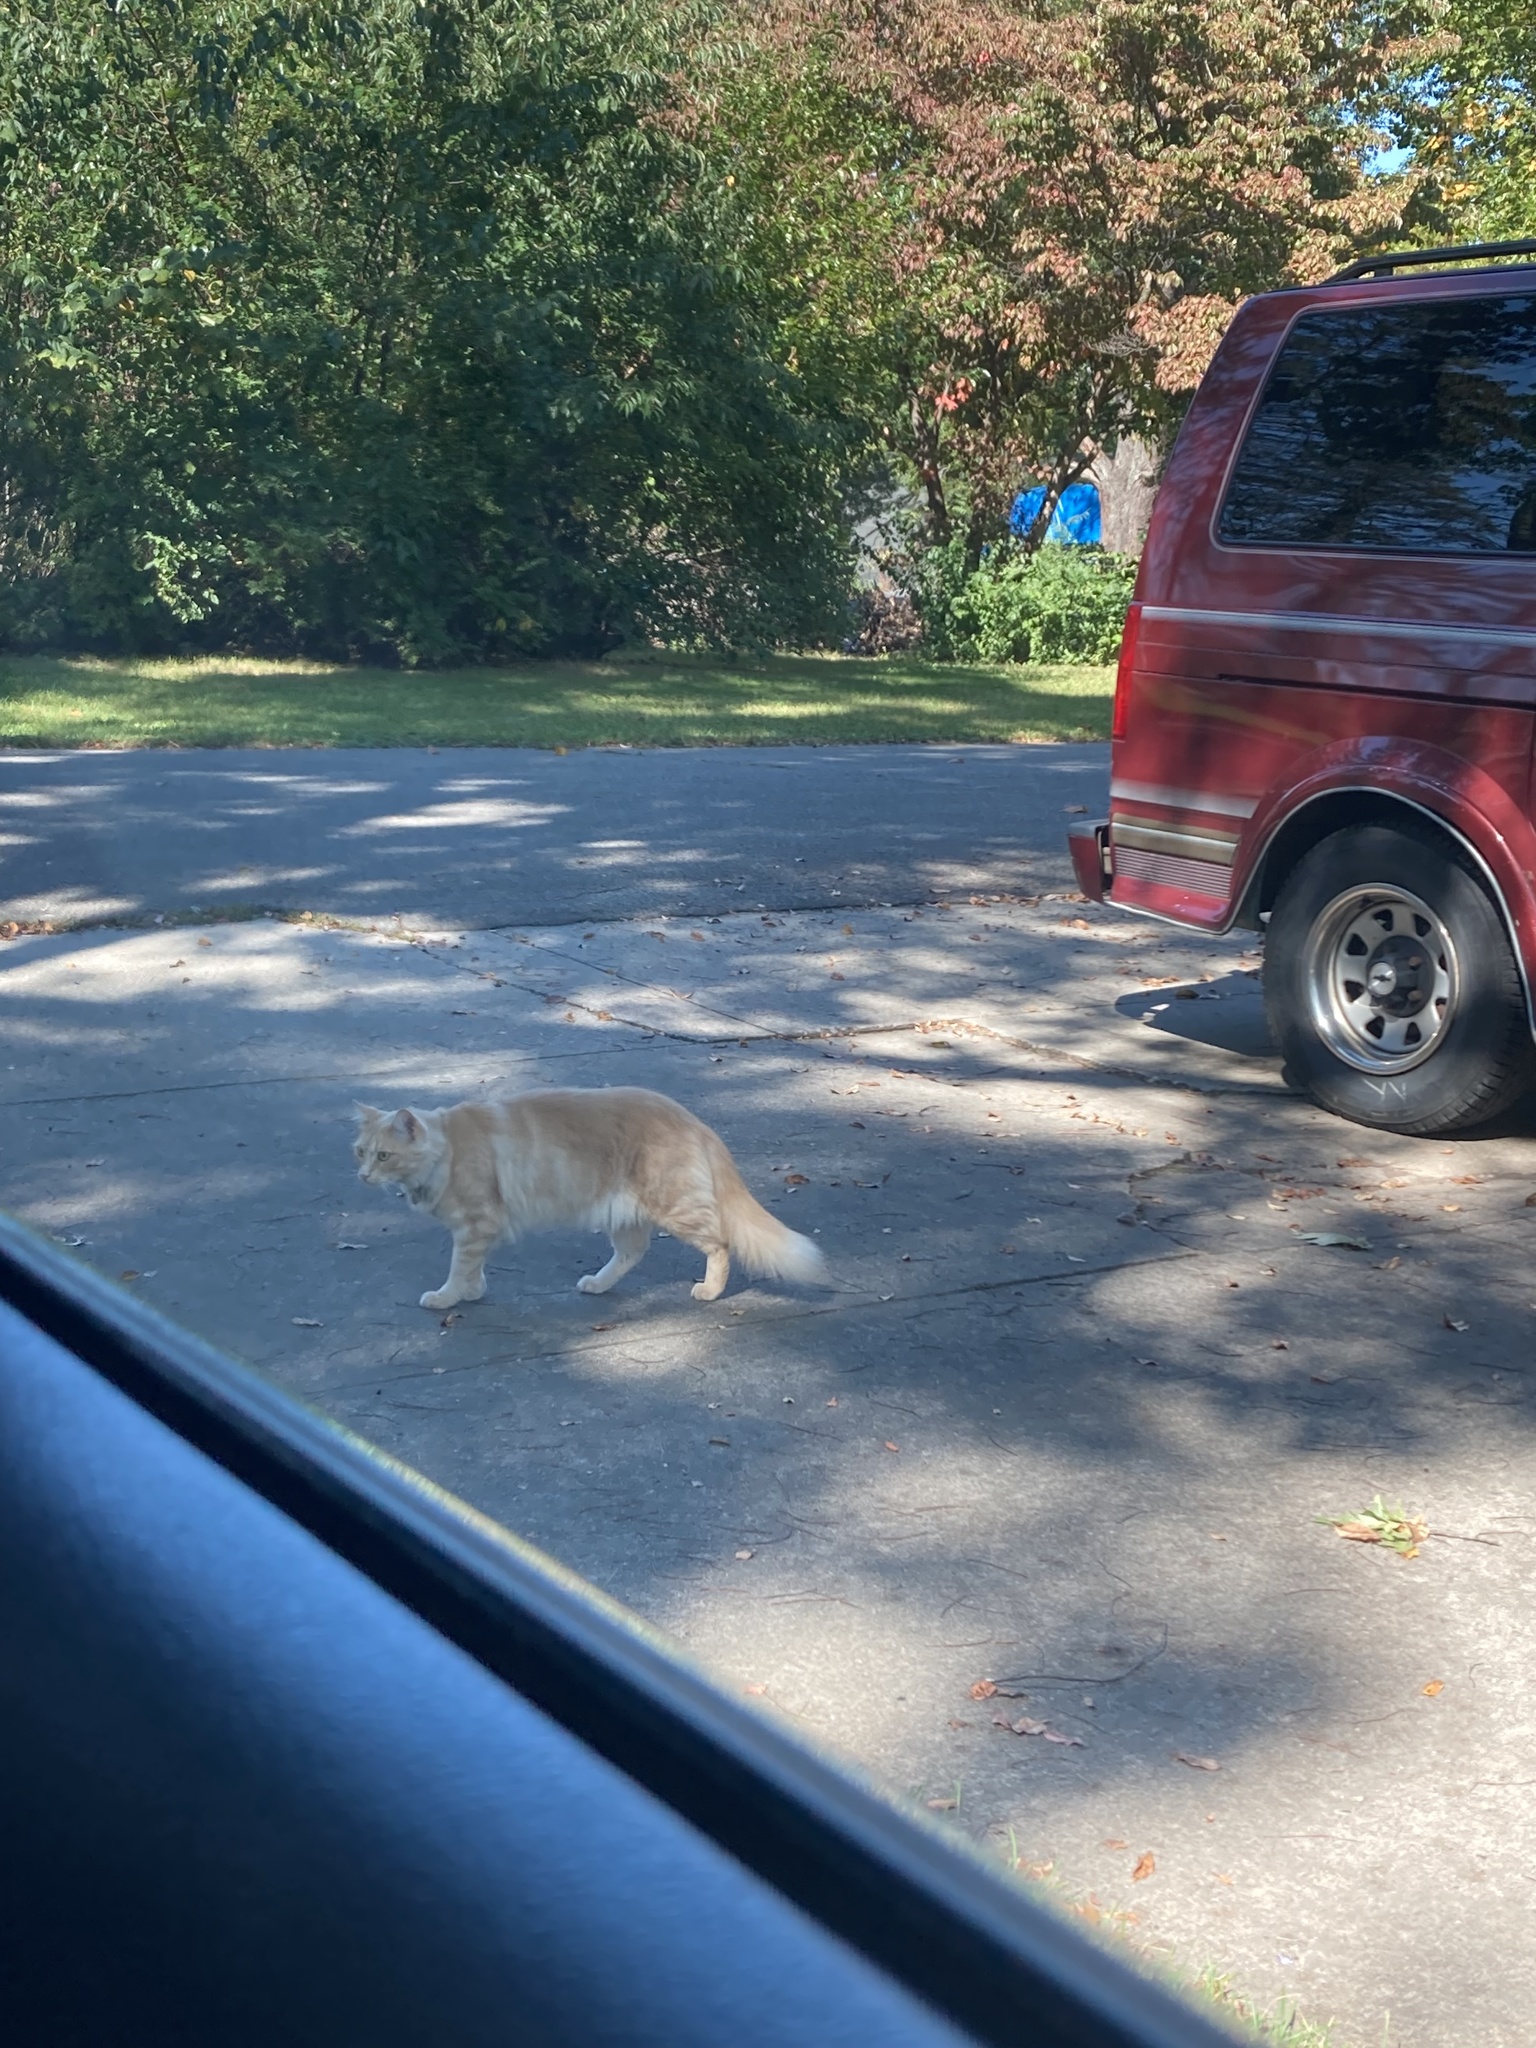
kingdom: Animalia
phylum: Chordata
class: Mammalia
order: Carnivora
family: Felidae
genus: Felis
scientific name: Felis catus
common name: Domestic cat
